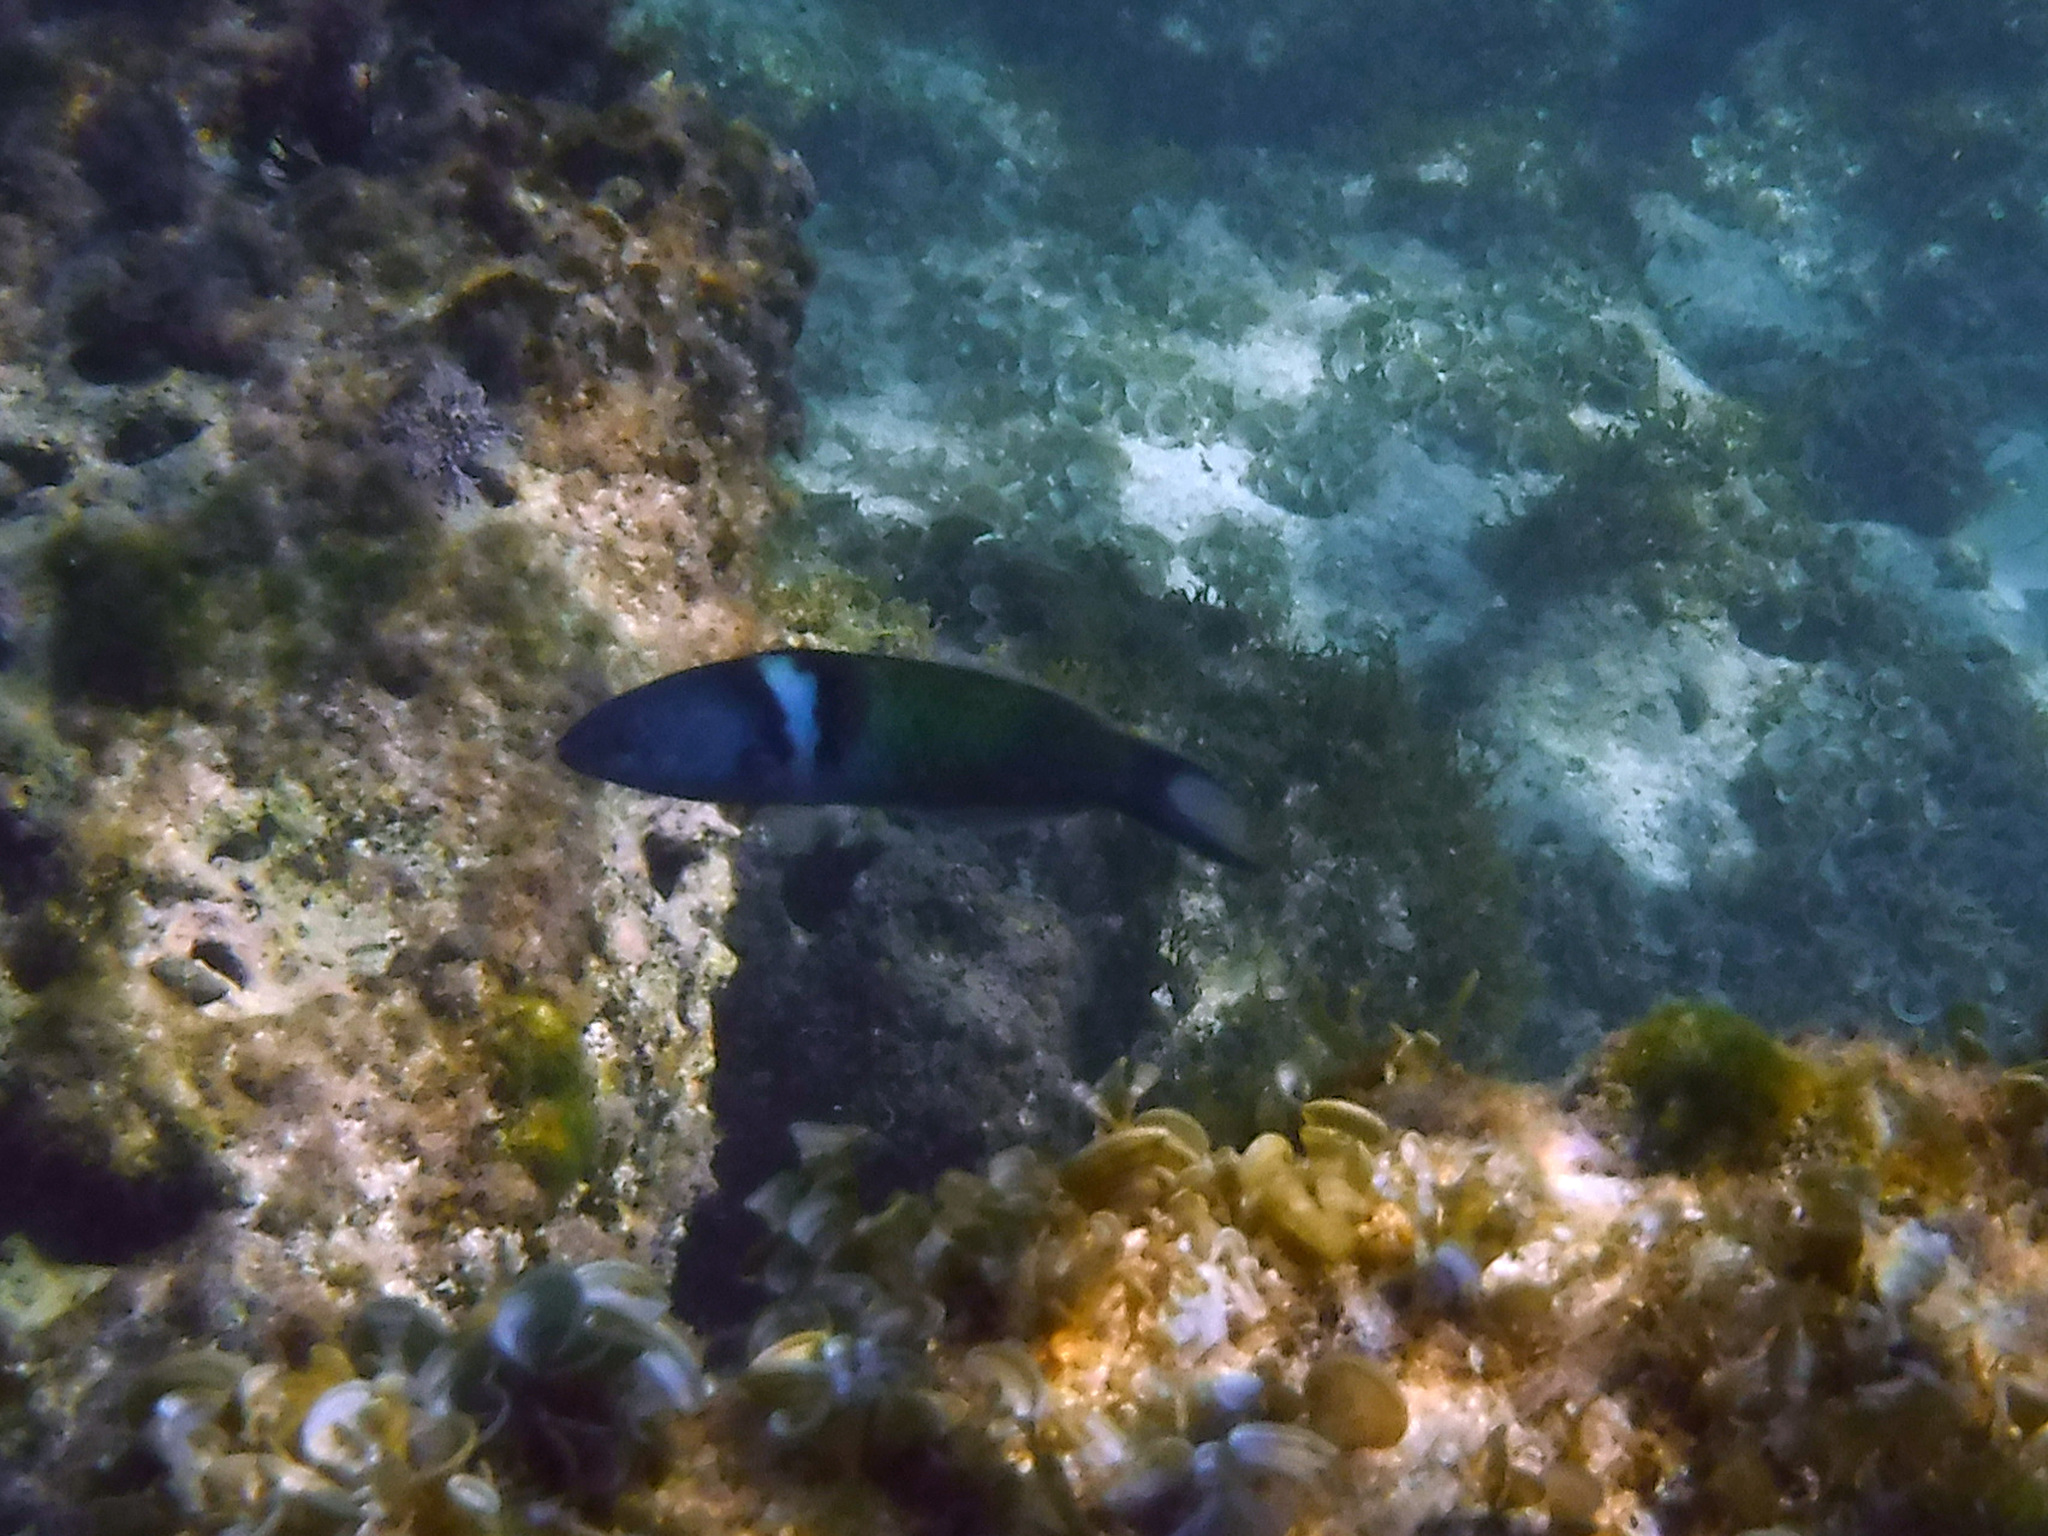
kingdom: Animalia
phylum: Chordata
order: Perciformes
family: Labridae
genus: Thalassoma
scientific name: Thalassoma bifasciatum
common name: Bluehead wrasse
